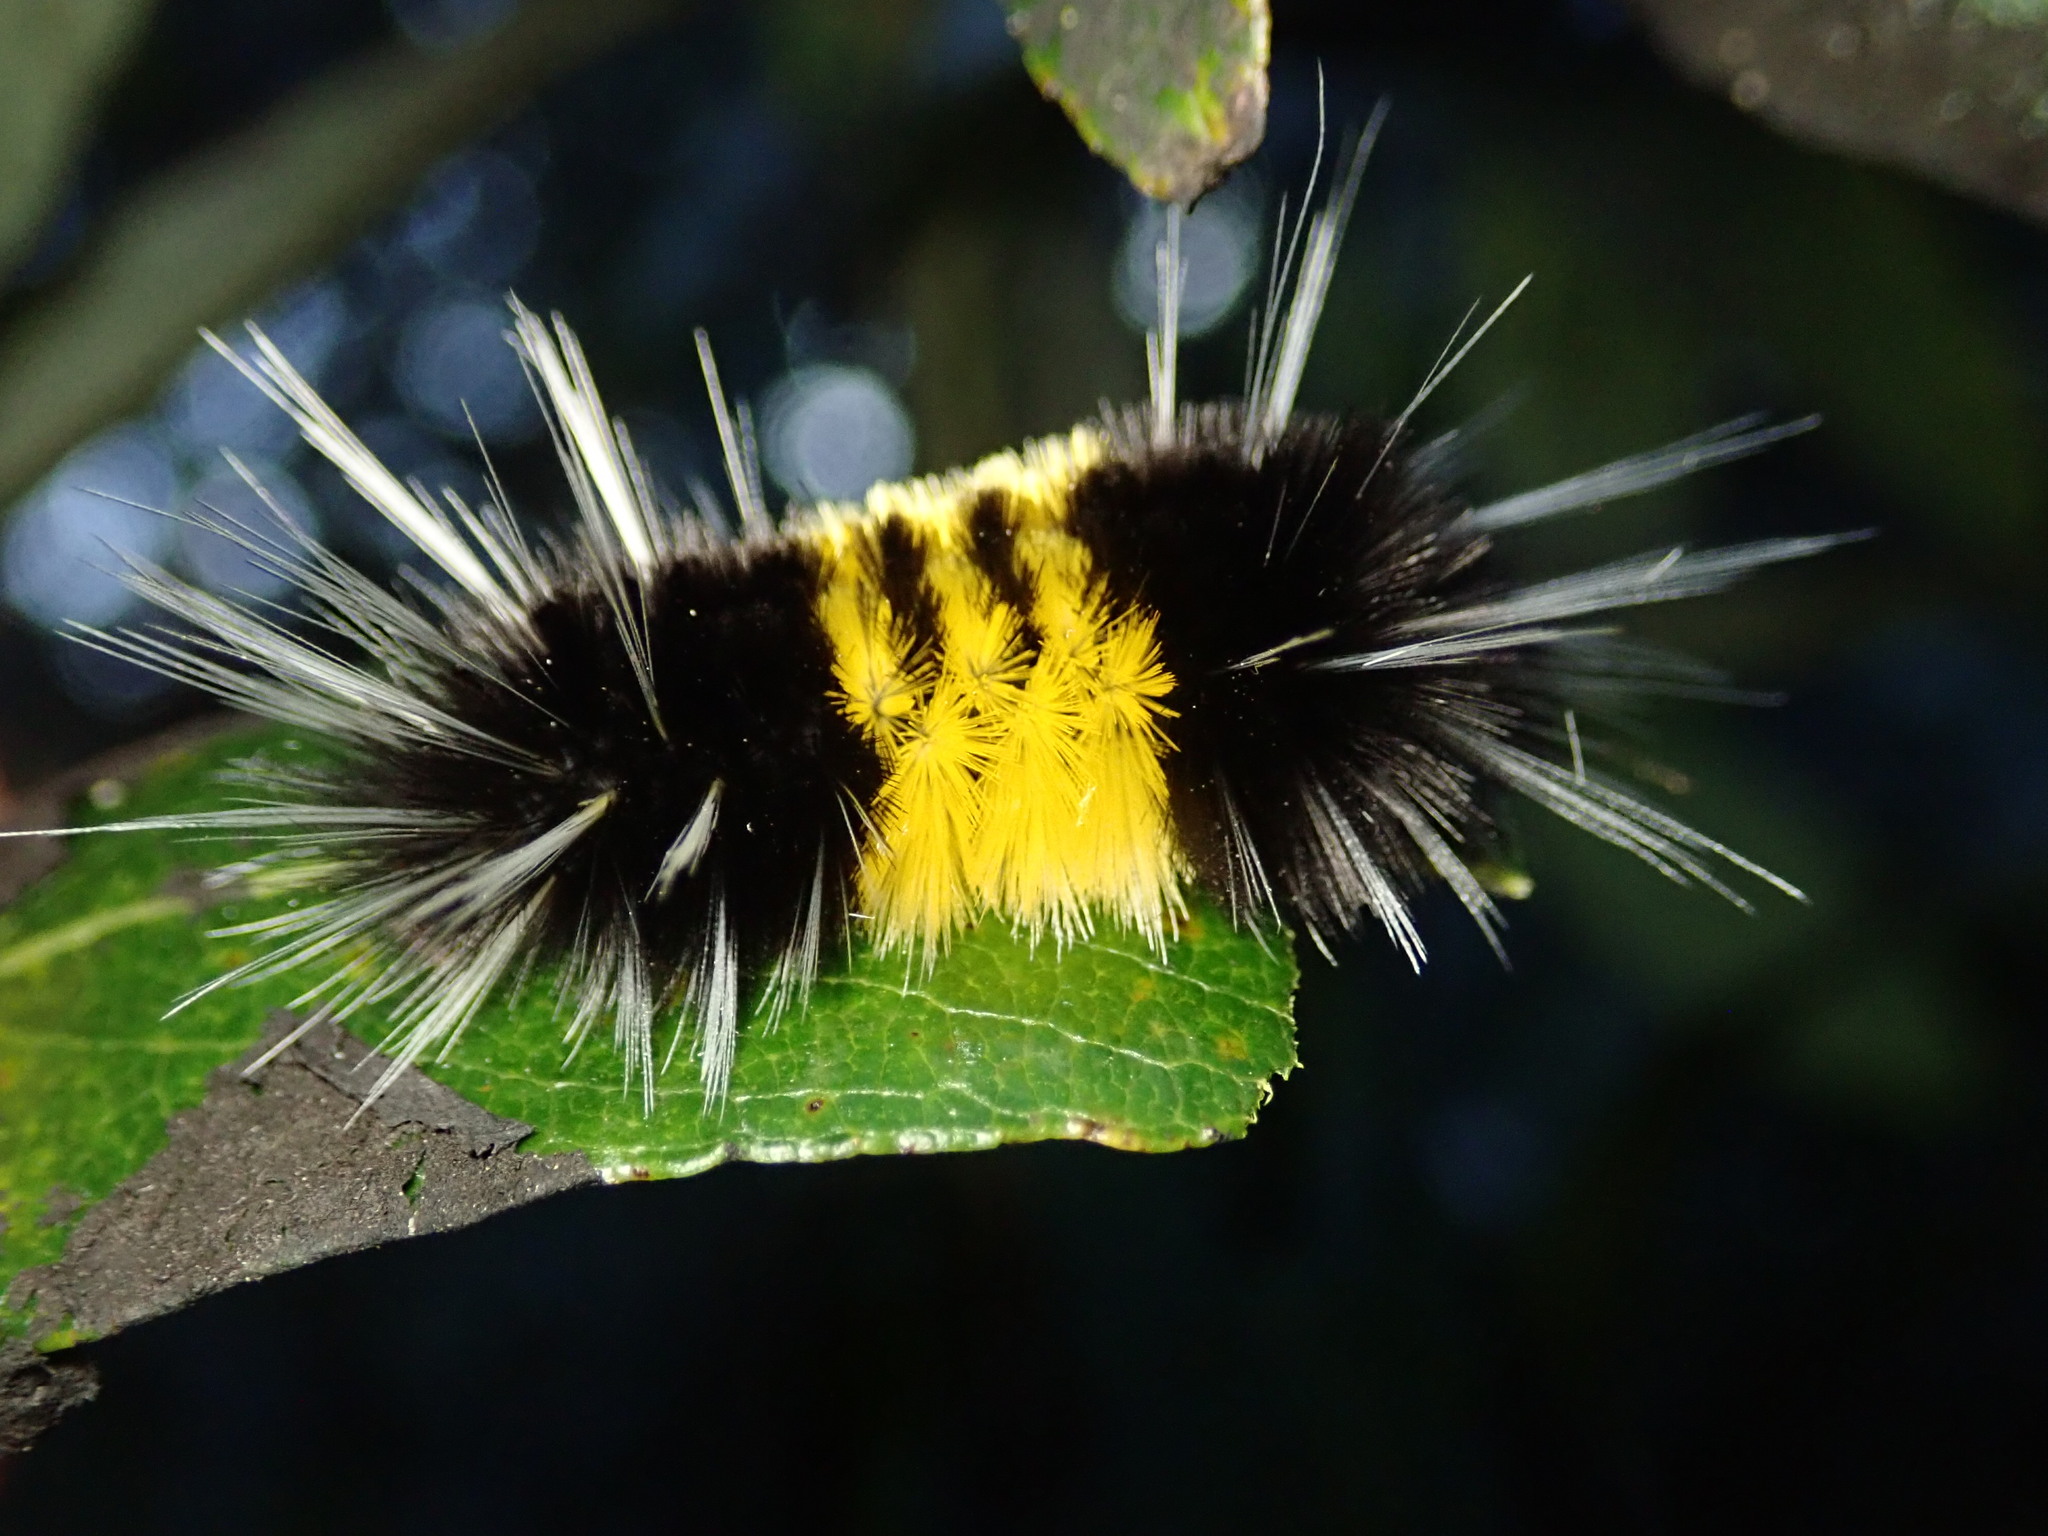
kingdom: Animalia
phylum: Arthropoda
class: Insecta
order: Lepidoptera
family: Erebidae
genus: Lophocampa
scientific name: Lophocampa maculata
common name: Spotted tussock moth
